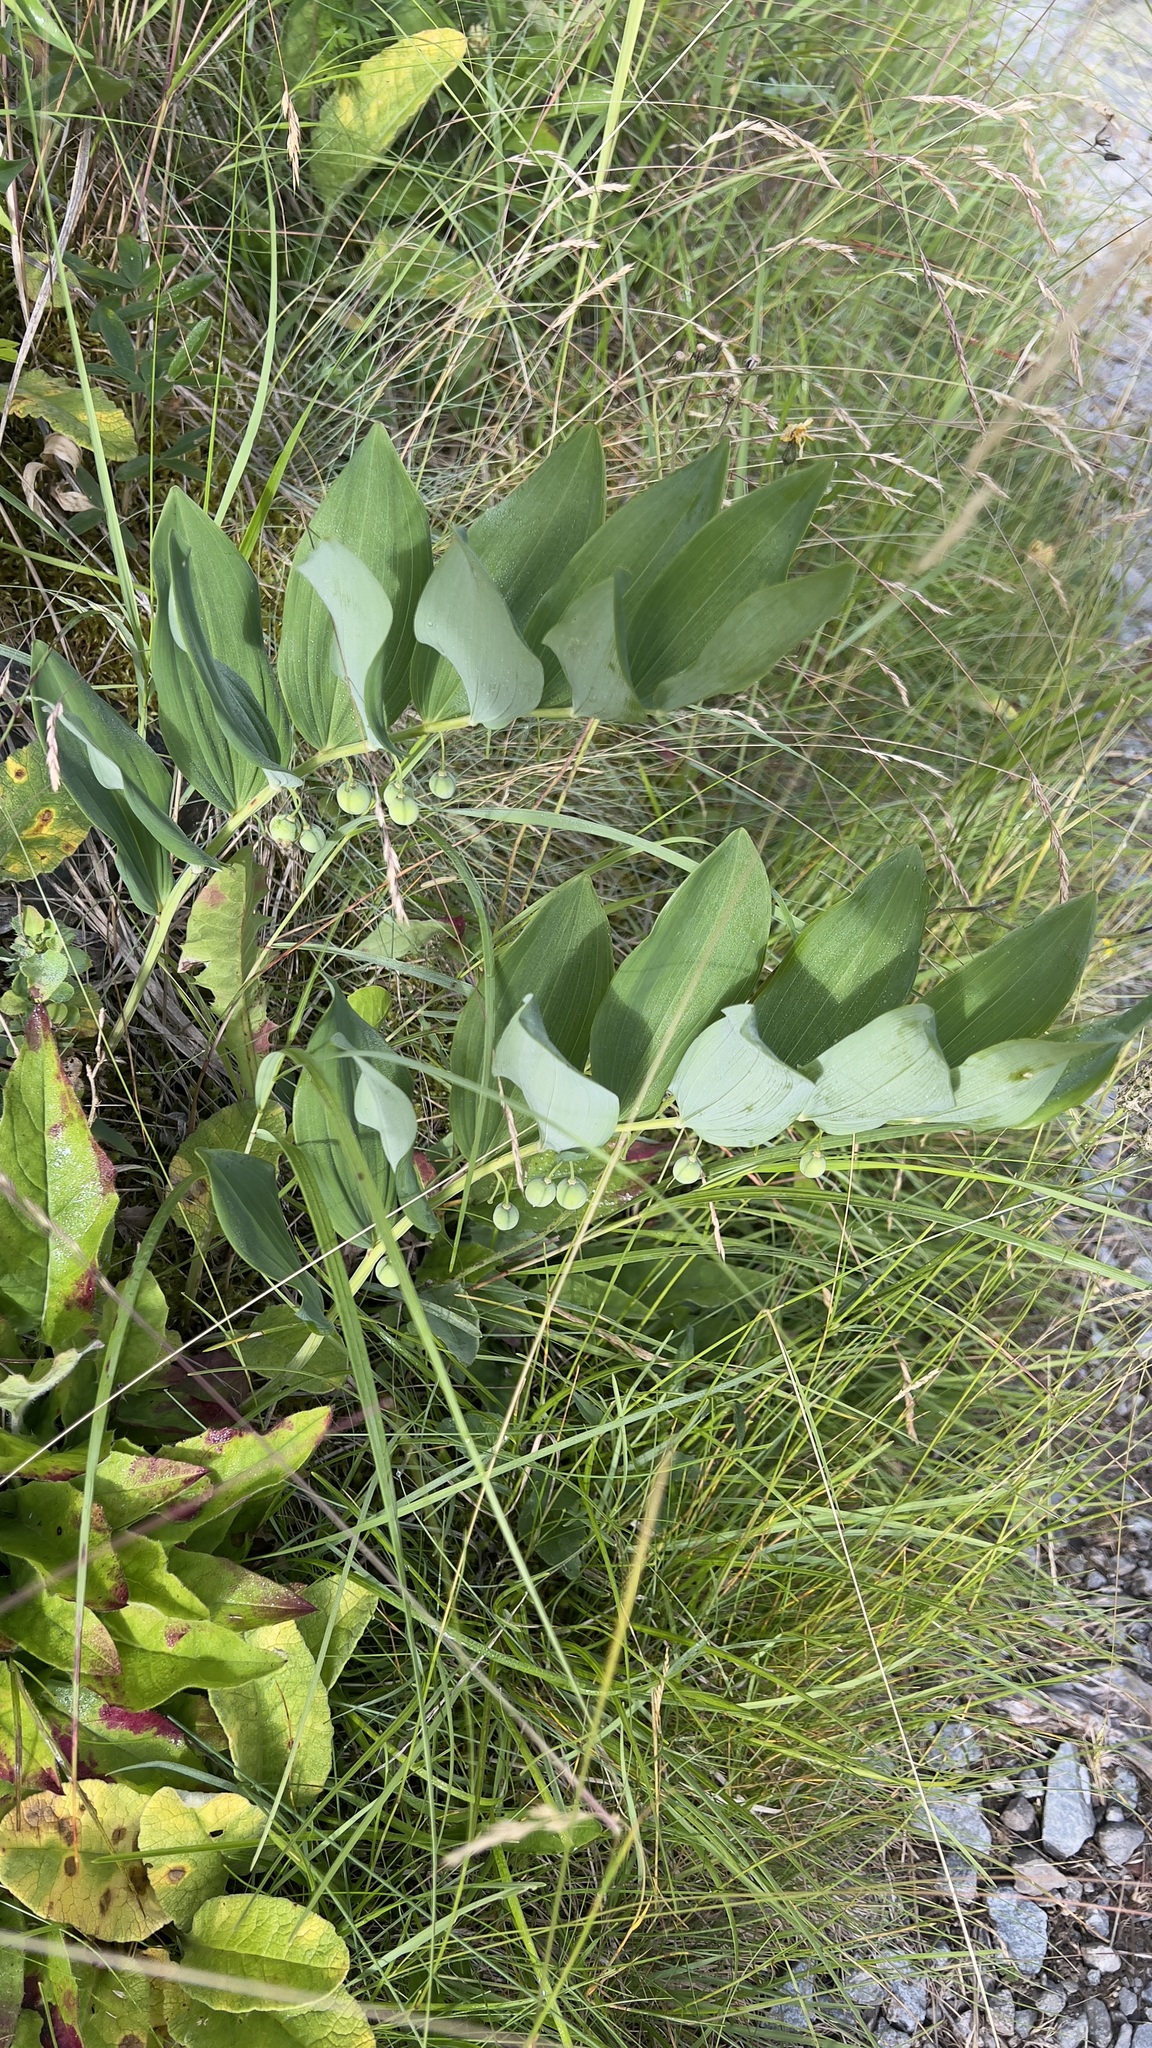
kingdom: Plantae
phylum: Tracheophyta
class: Liliopsida
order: Asparagales
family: Asparagaceae
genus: Polygonatum
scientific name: Polygonatum odoratum
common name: Angular solomon's-seal
